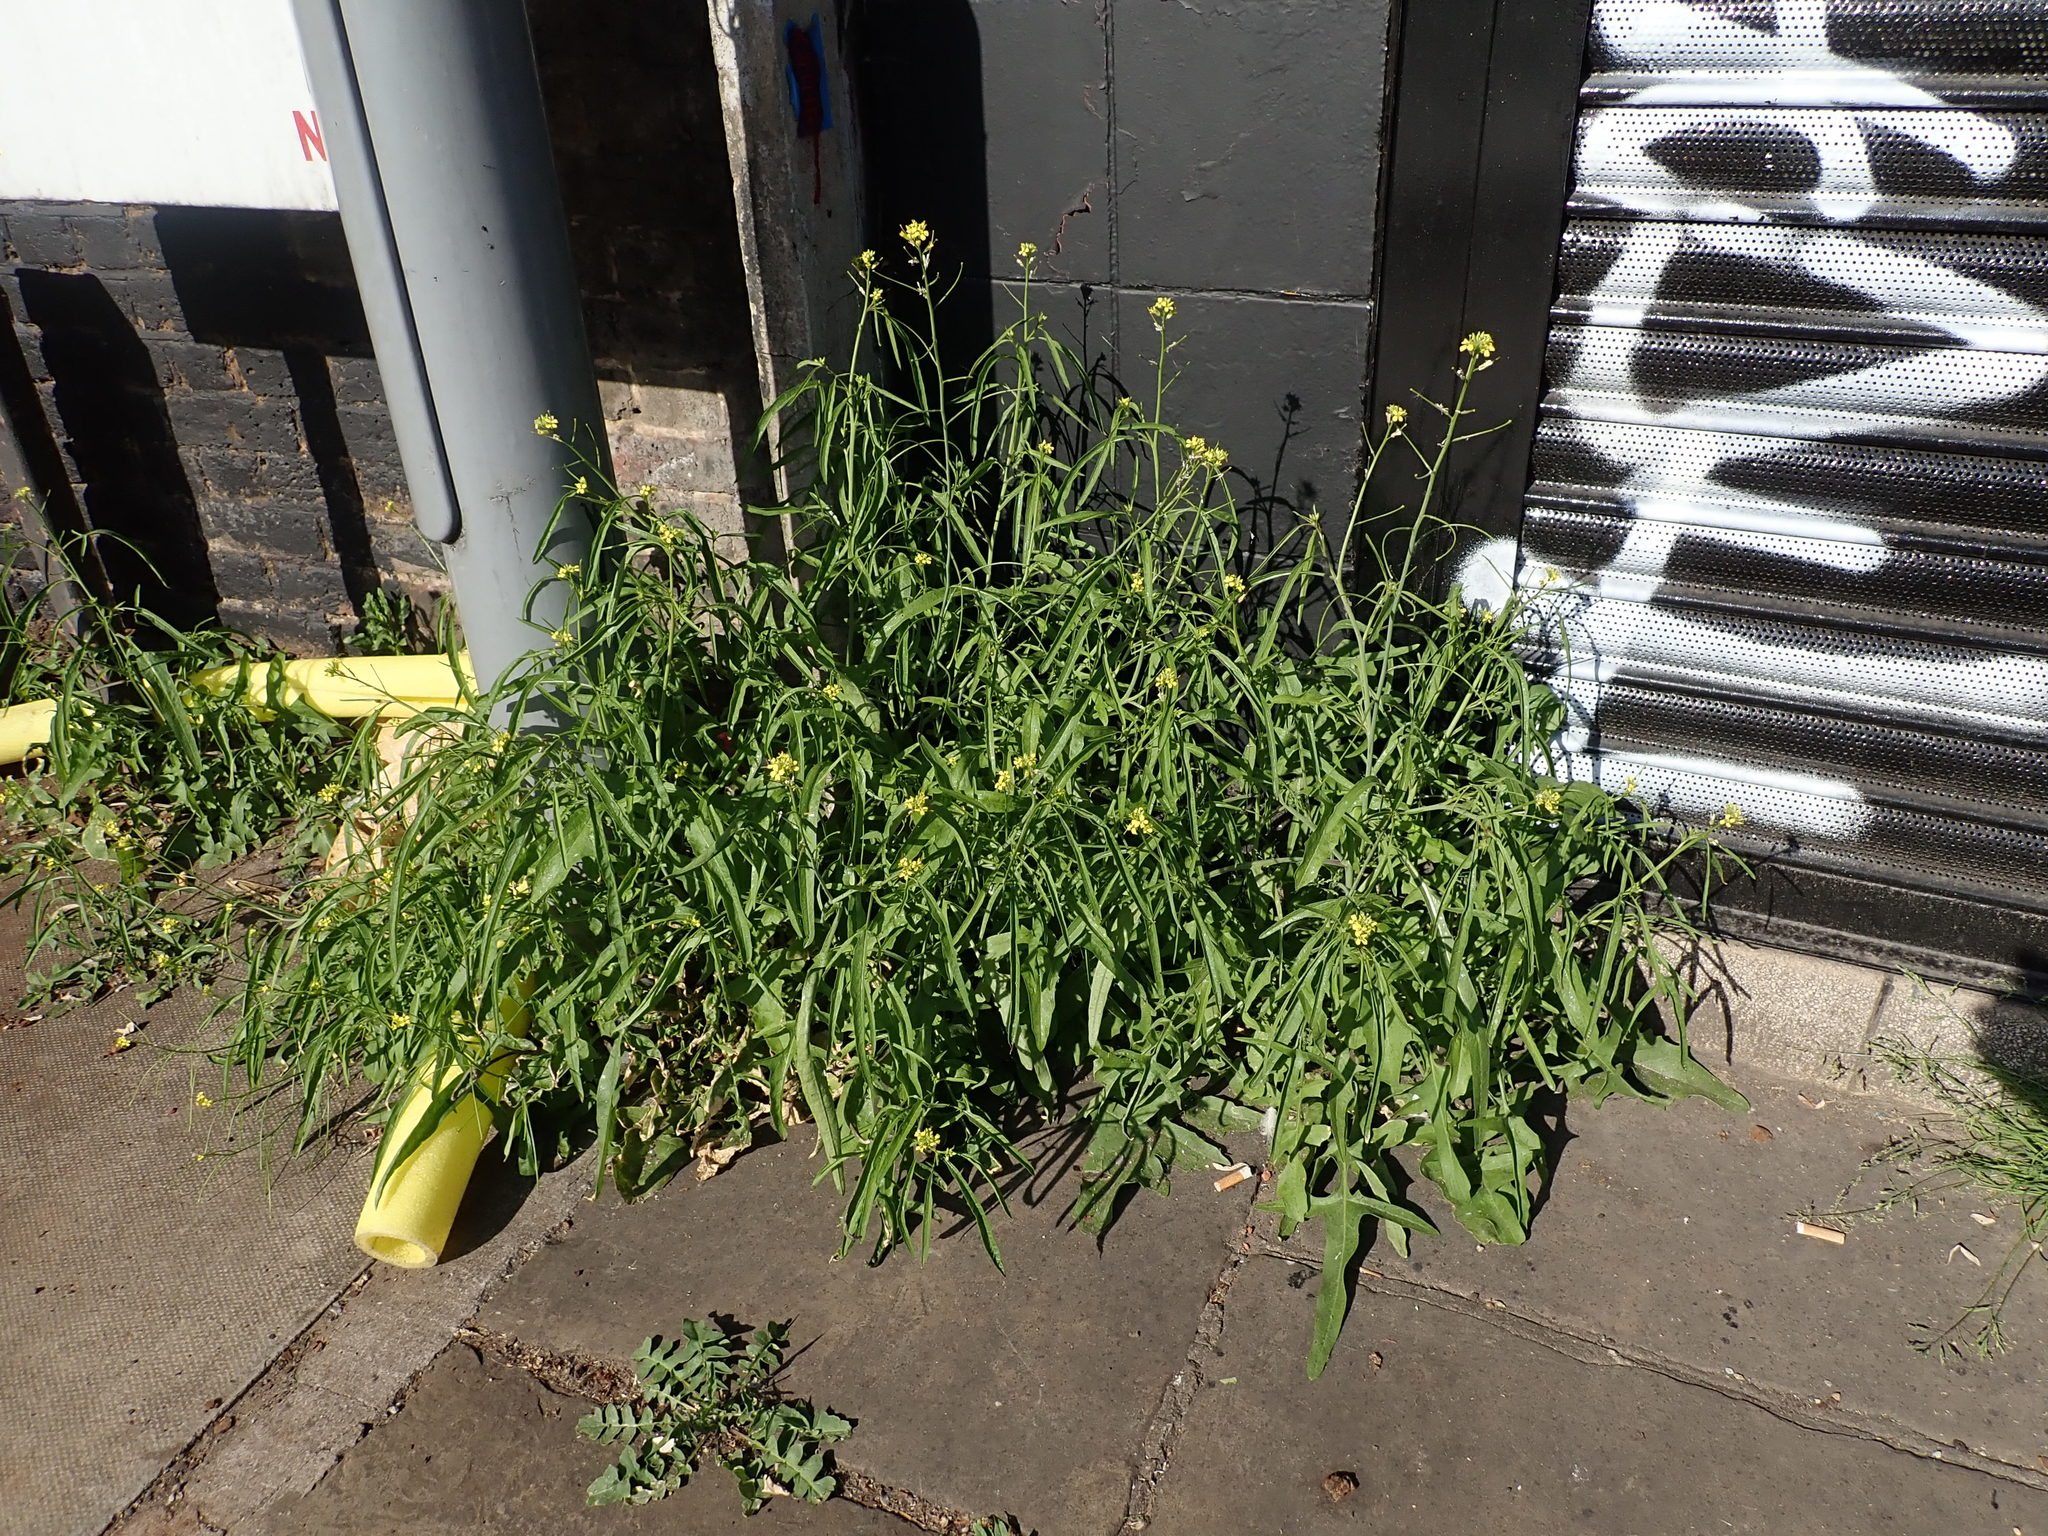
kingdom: Plantae
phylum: Tracheophyta
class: Magnoliopsida
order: Brassicales
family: Brassicaceae
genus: Sisymbrium
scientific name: Sisymbrium orientale
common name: Eastern rocket
